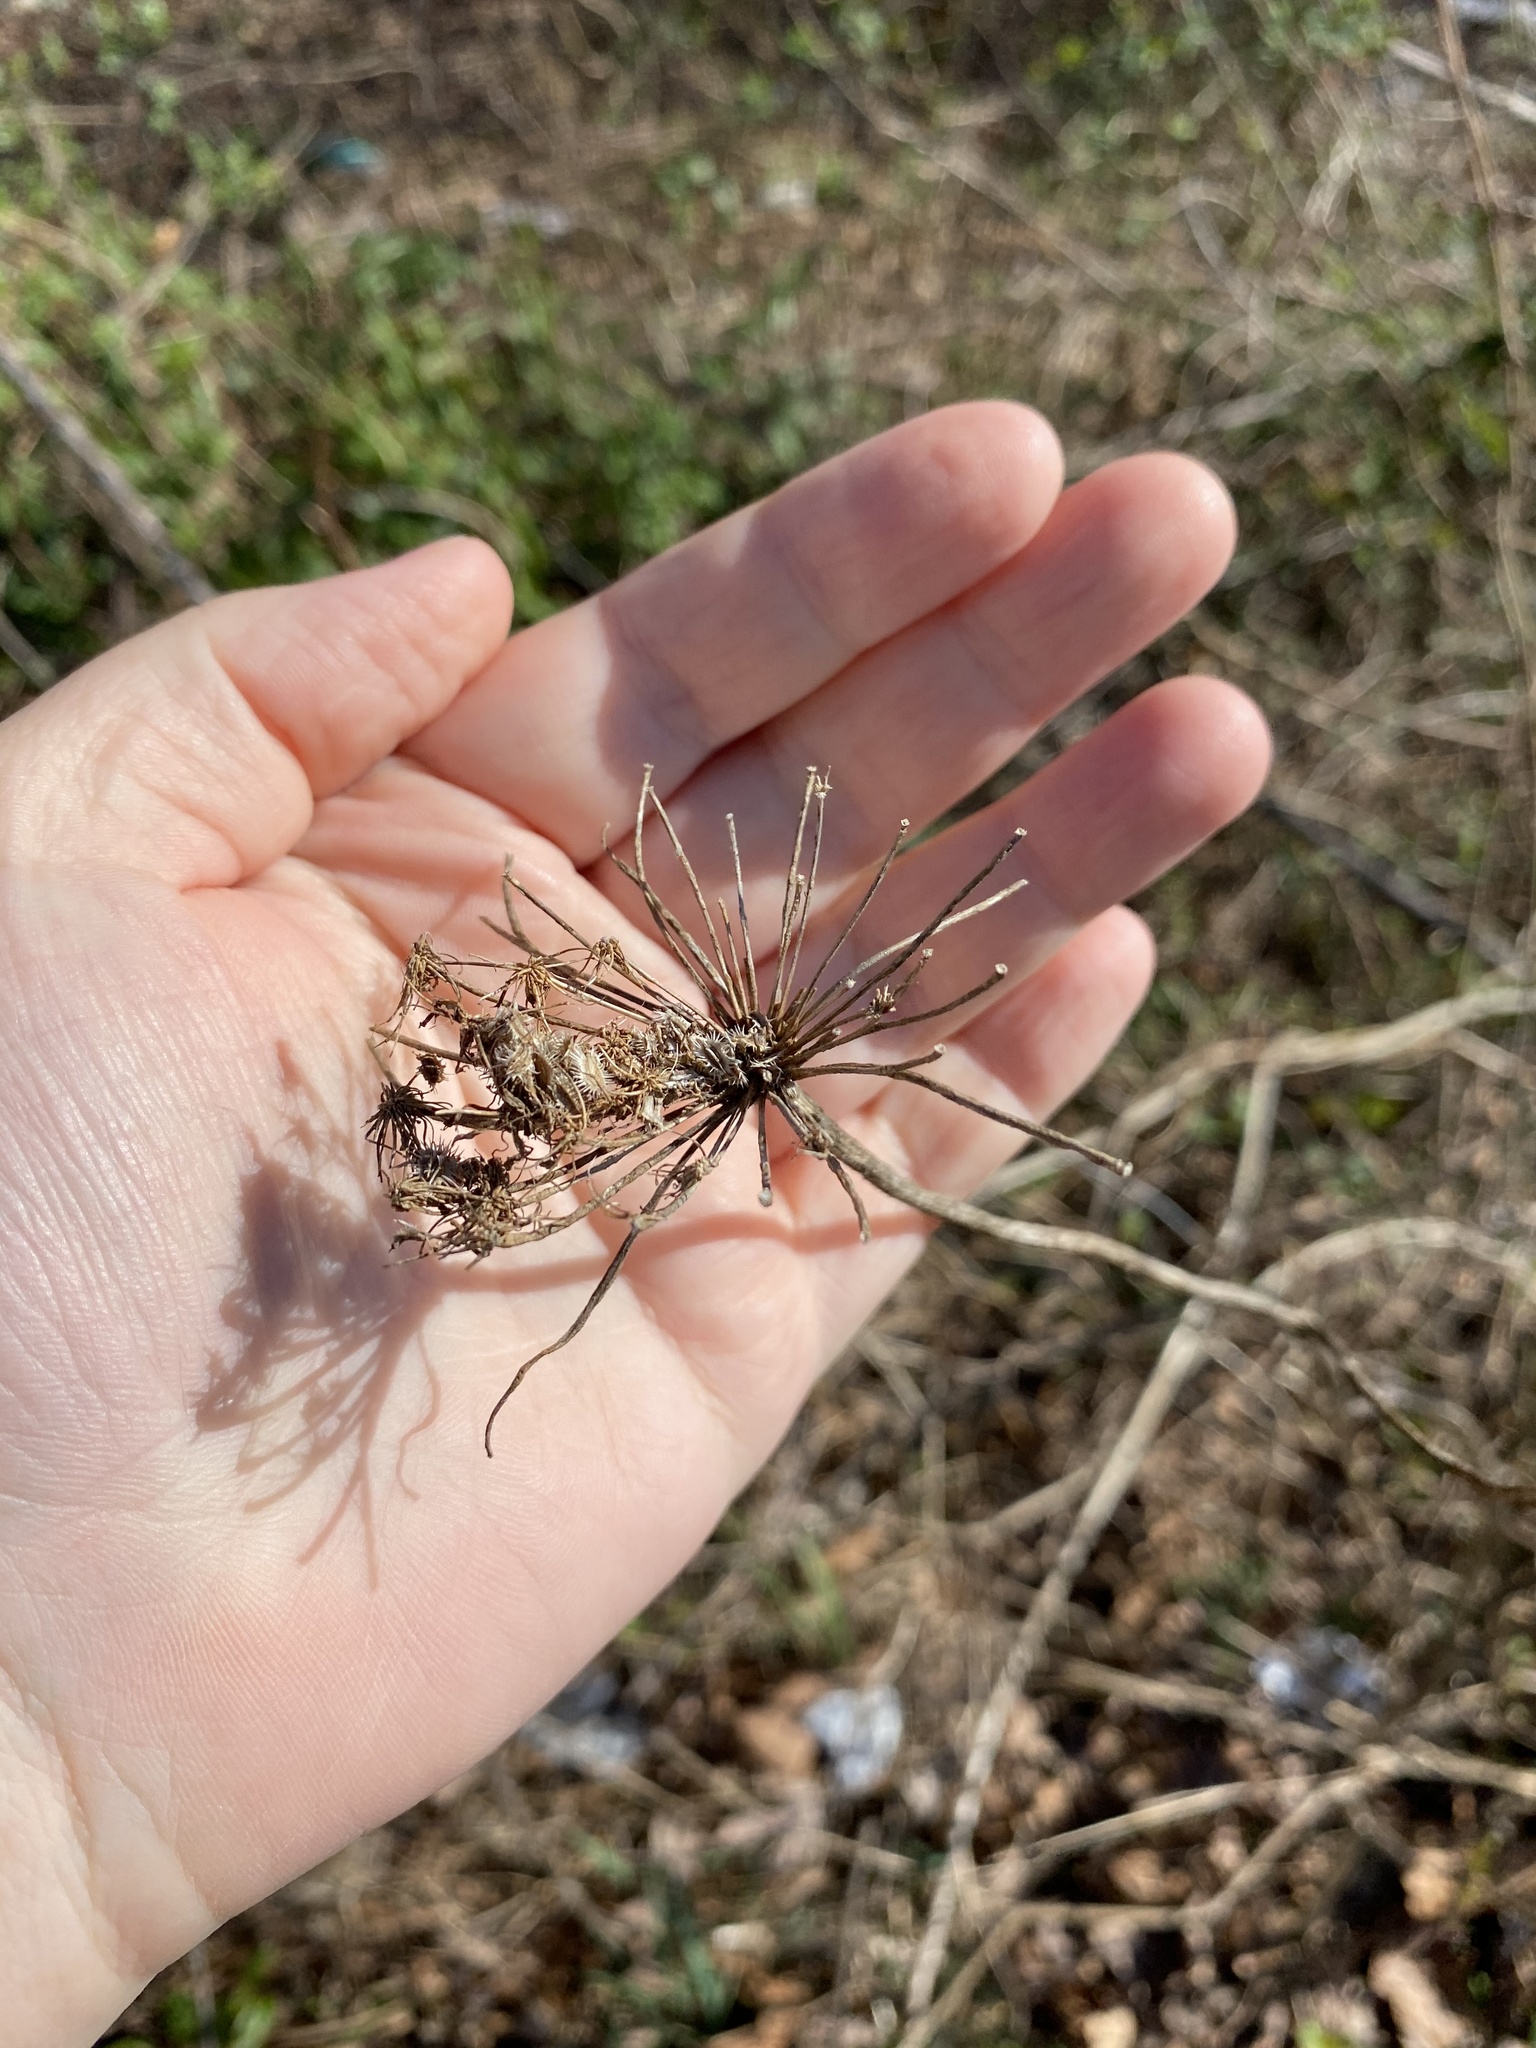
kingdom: Plantae
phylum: Tracheophyta
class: Magnoliopsida
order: Apiales
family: Apiaceae
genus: Daucus
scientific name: Daucus carota
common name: Wild carrot
